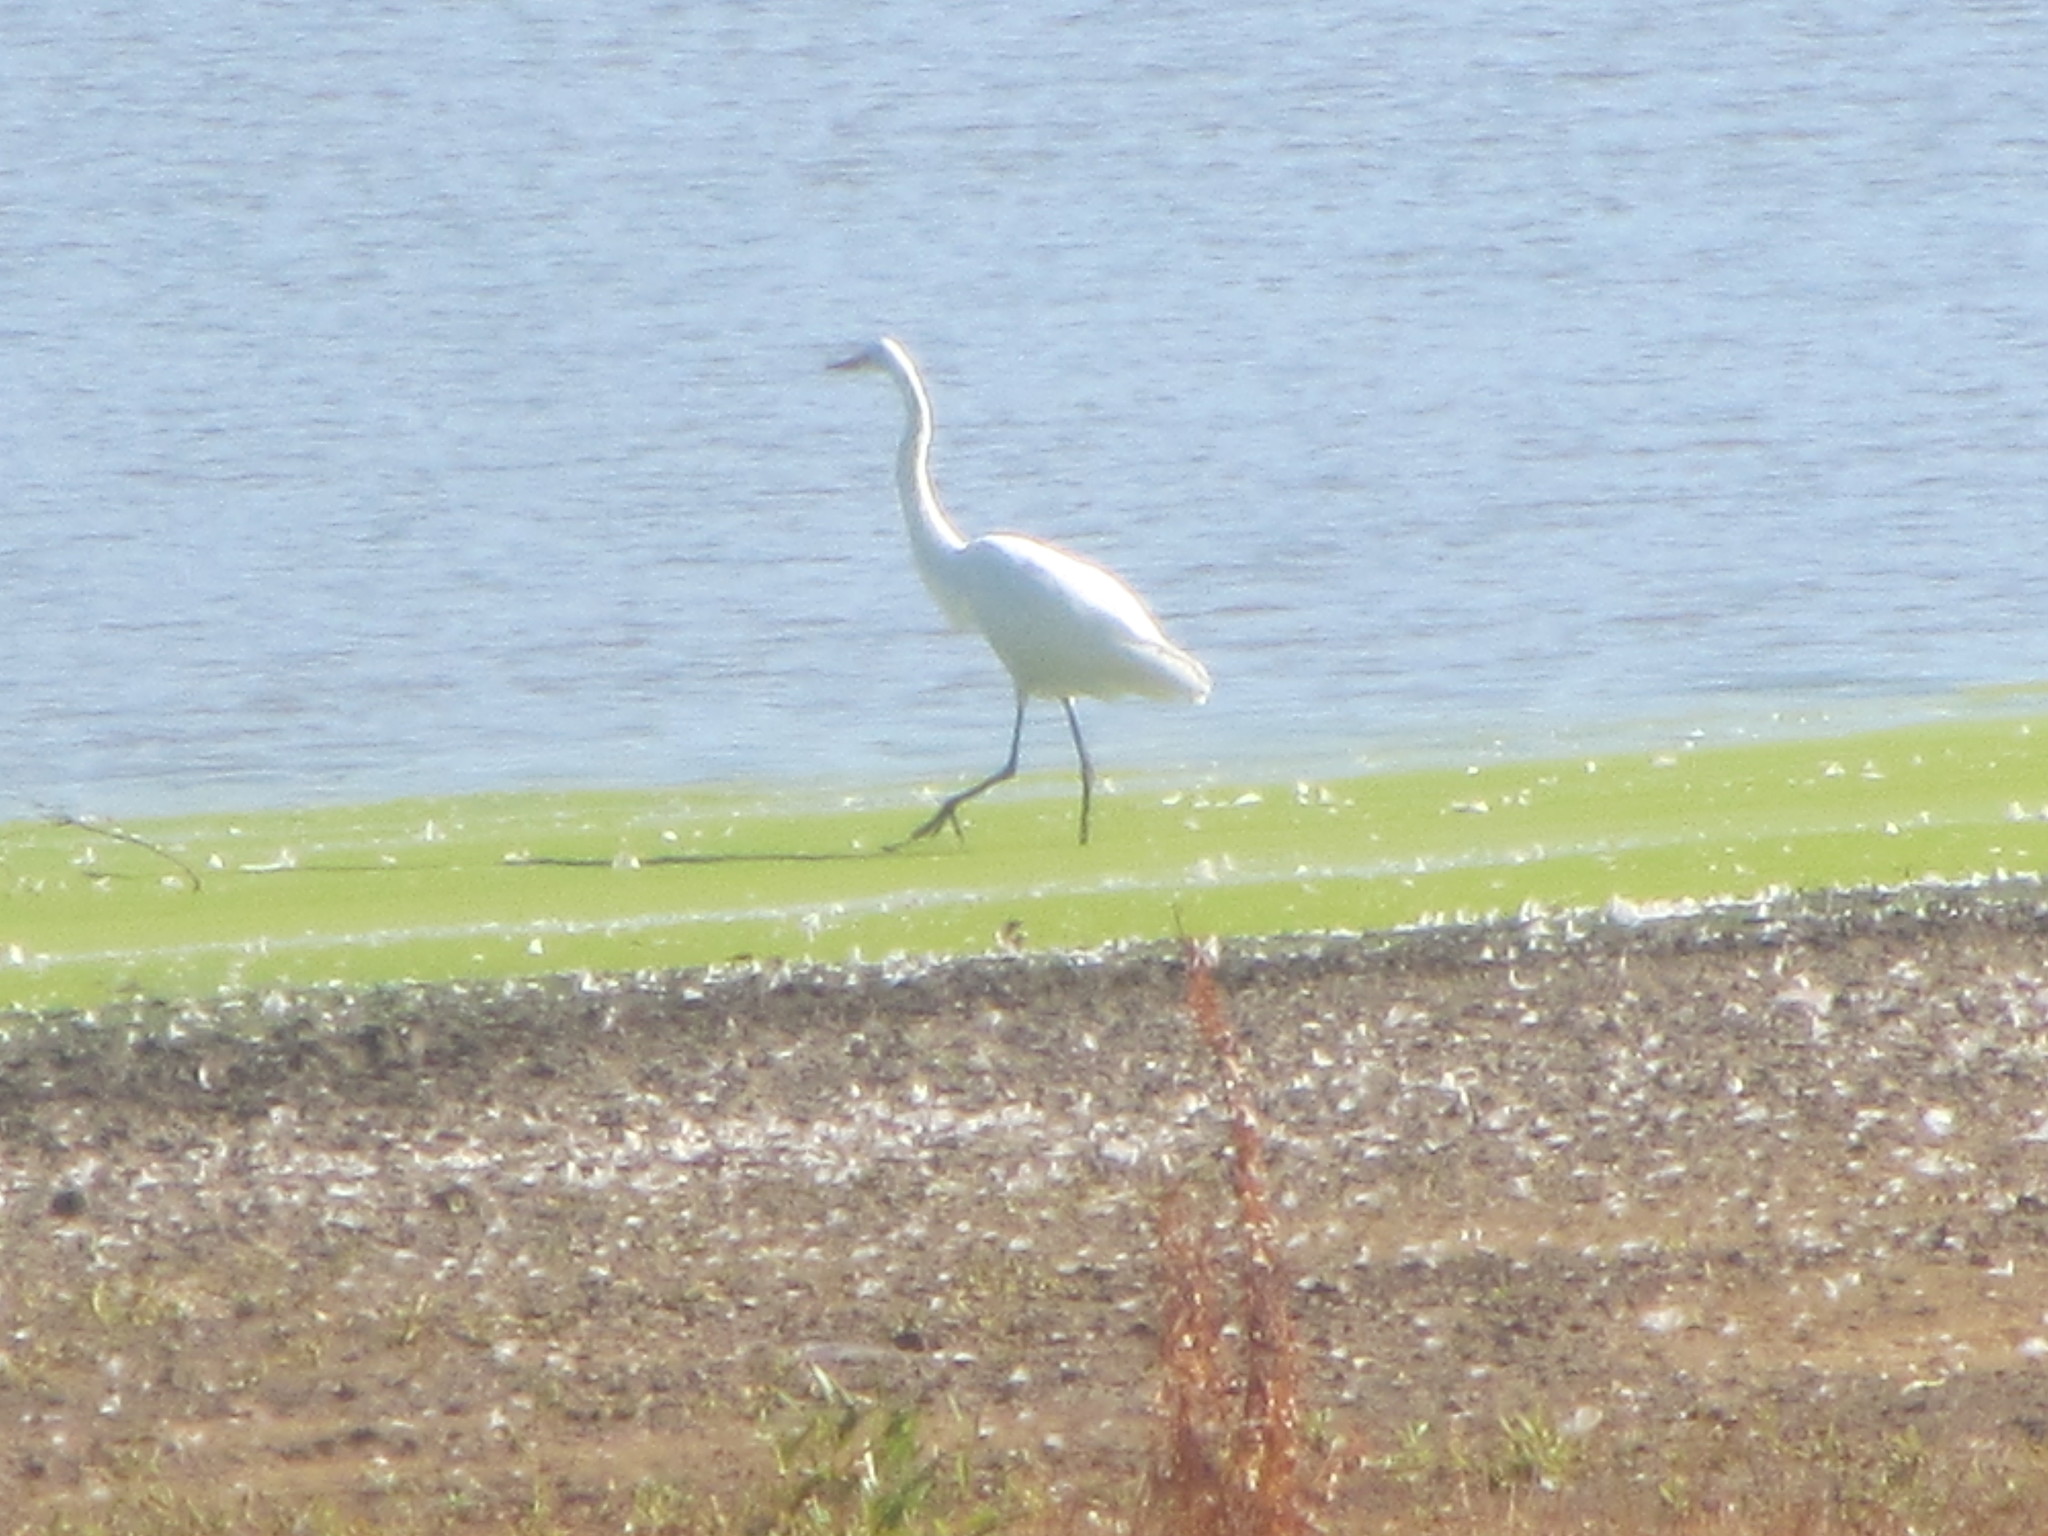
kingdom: Animalia
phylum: Chordata
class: Aves
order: Pelecaniformes
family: Ardeidae
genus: Ardea
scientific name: Ardea alba
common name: Great egret
